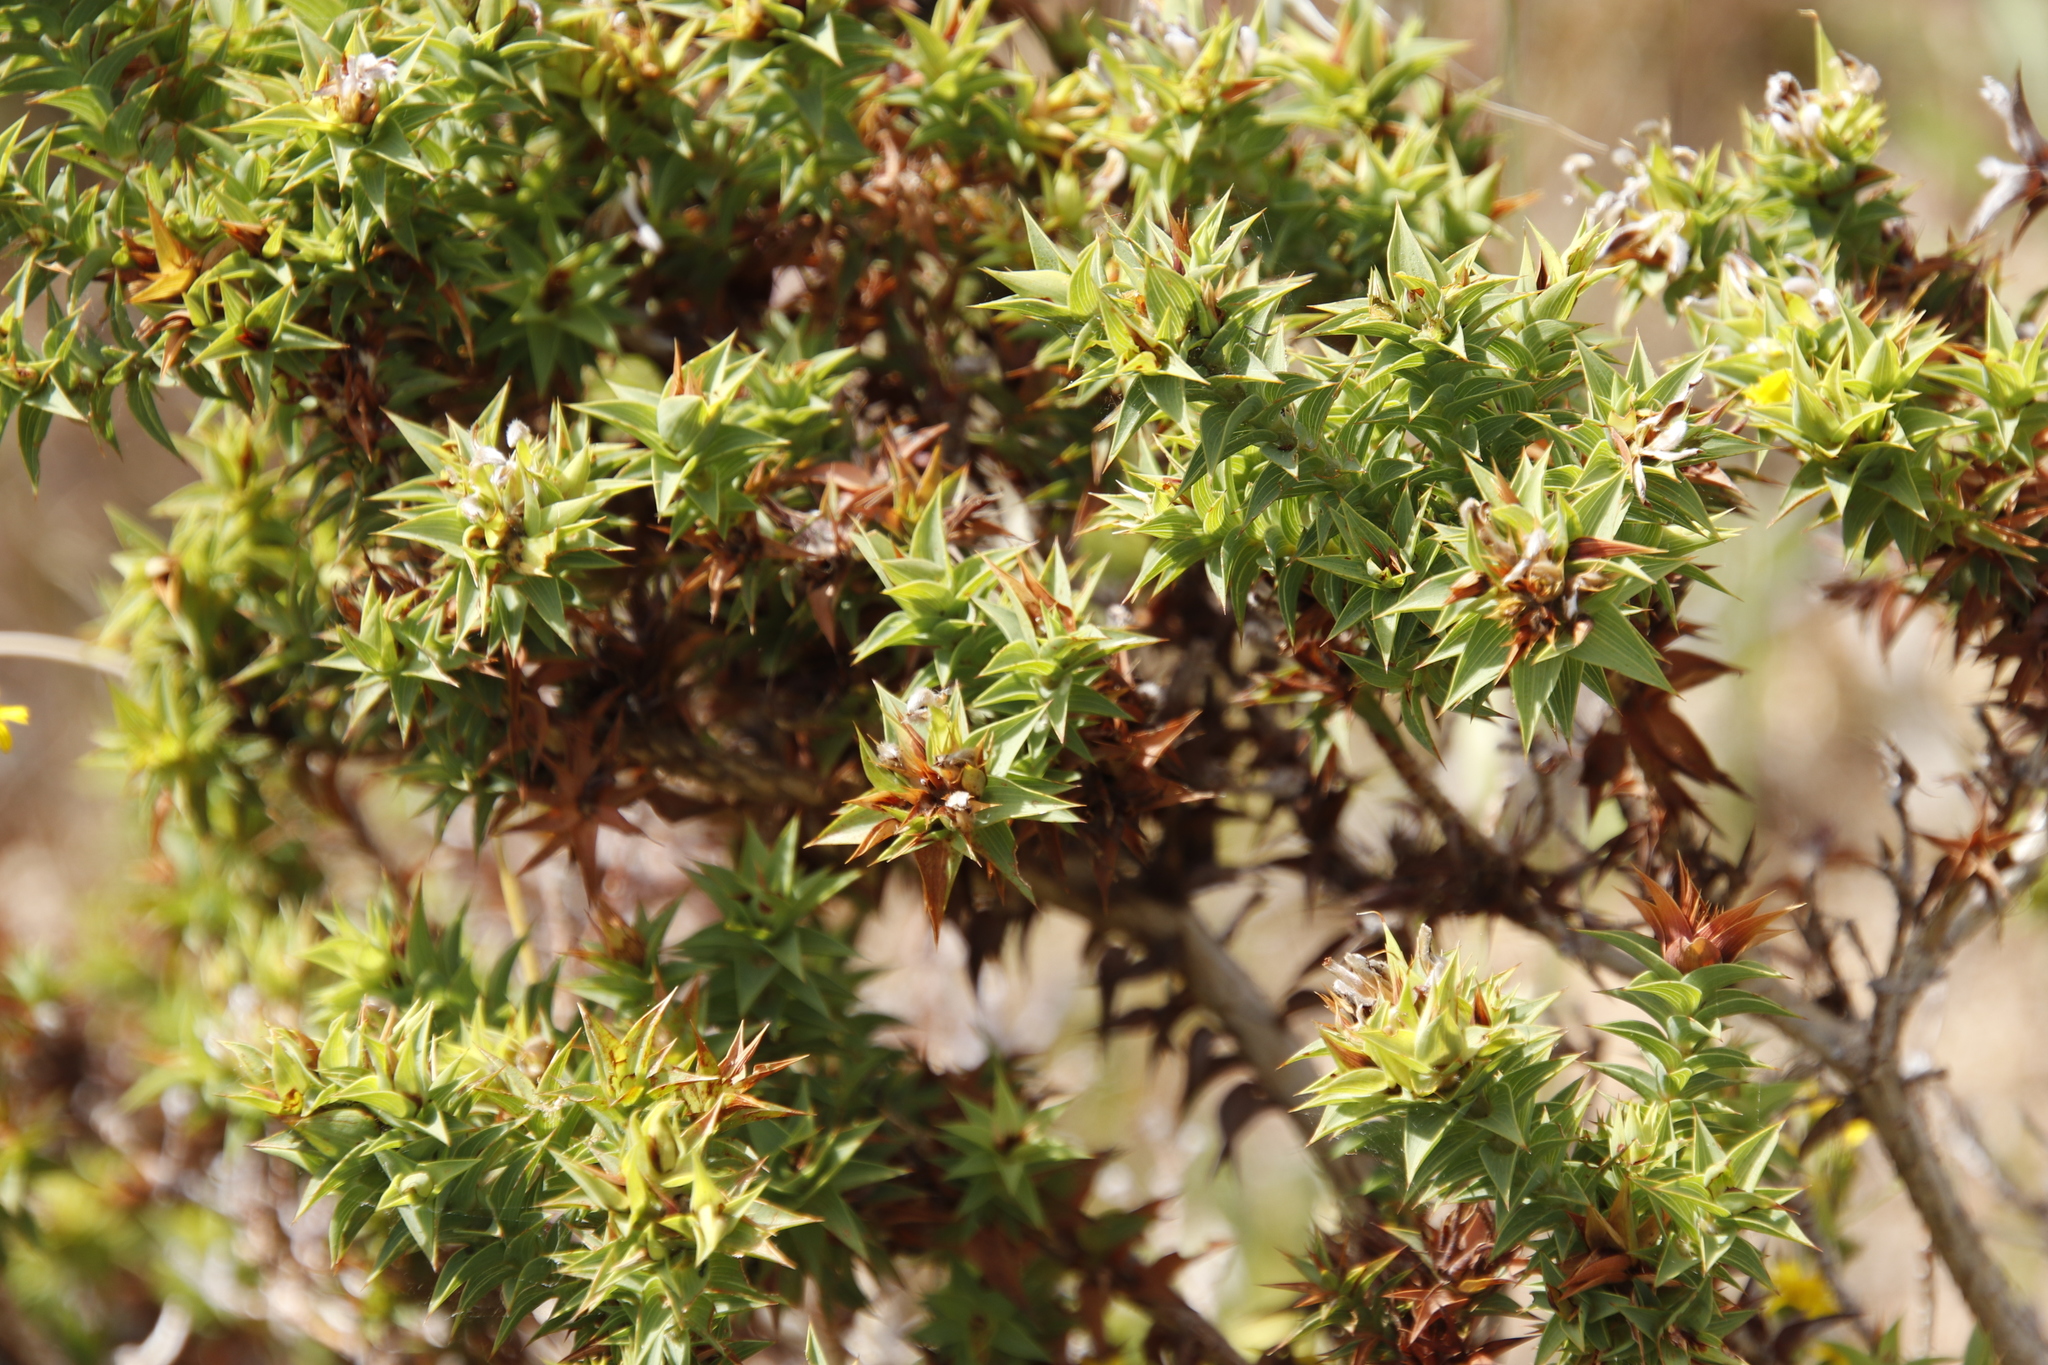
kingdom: Plantae
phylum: Tracheophyta
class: Magnoliopsida
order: Fabales
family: Fabaceae
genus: Aspalathus
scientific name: Aspalathus cordata
